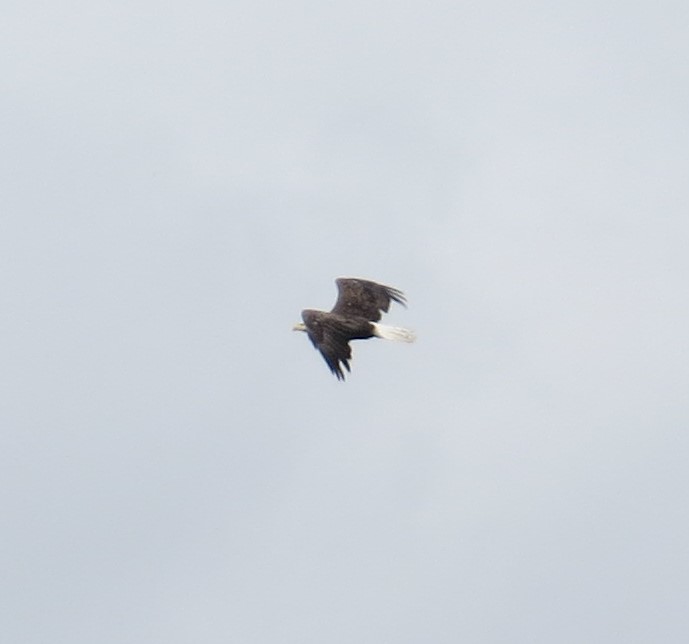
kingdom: Animalia
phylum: Chordata
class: Aves
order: Accipitriformes
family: Accipitridae
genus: Haliaeetus
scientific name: Haliaeetus leucocephalus
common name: Bald eagle
